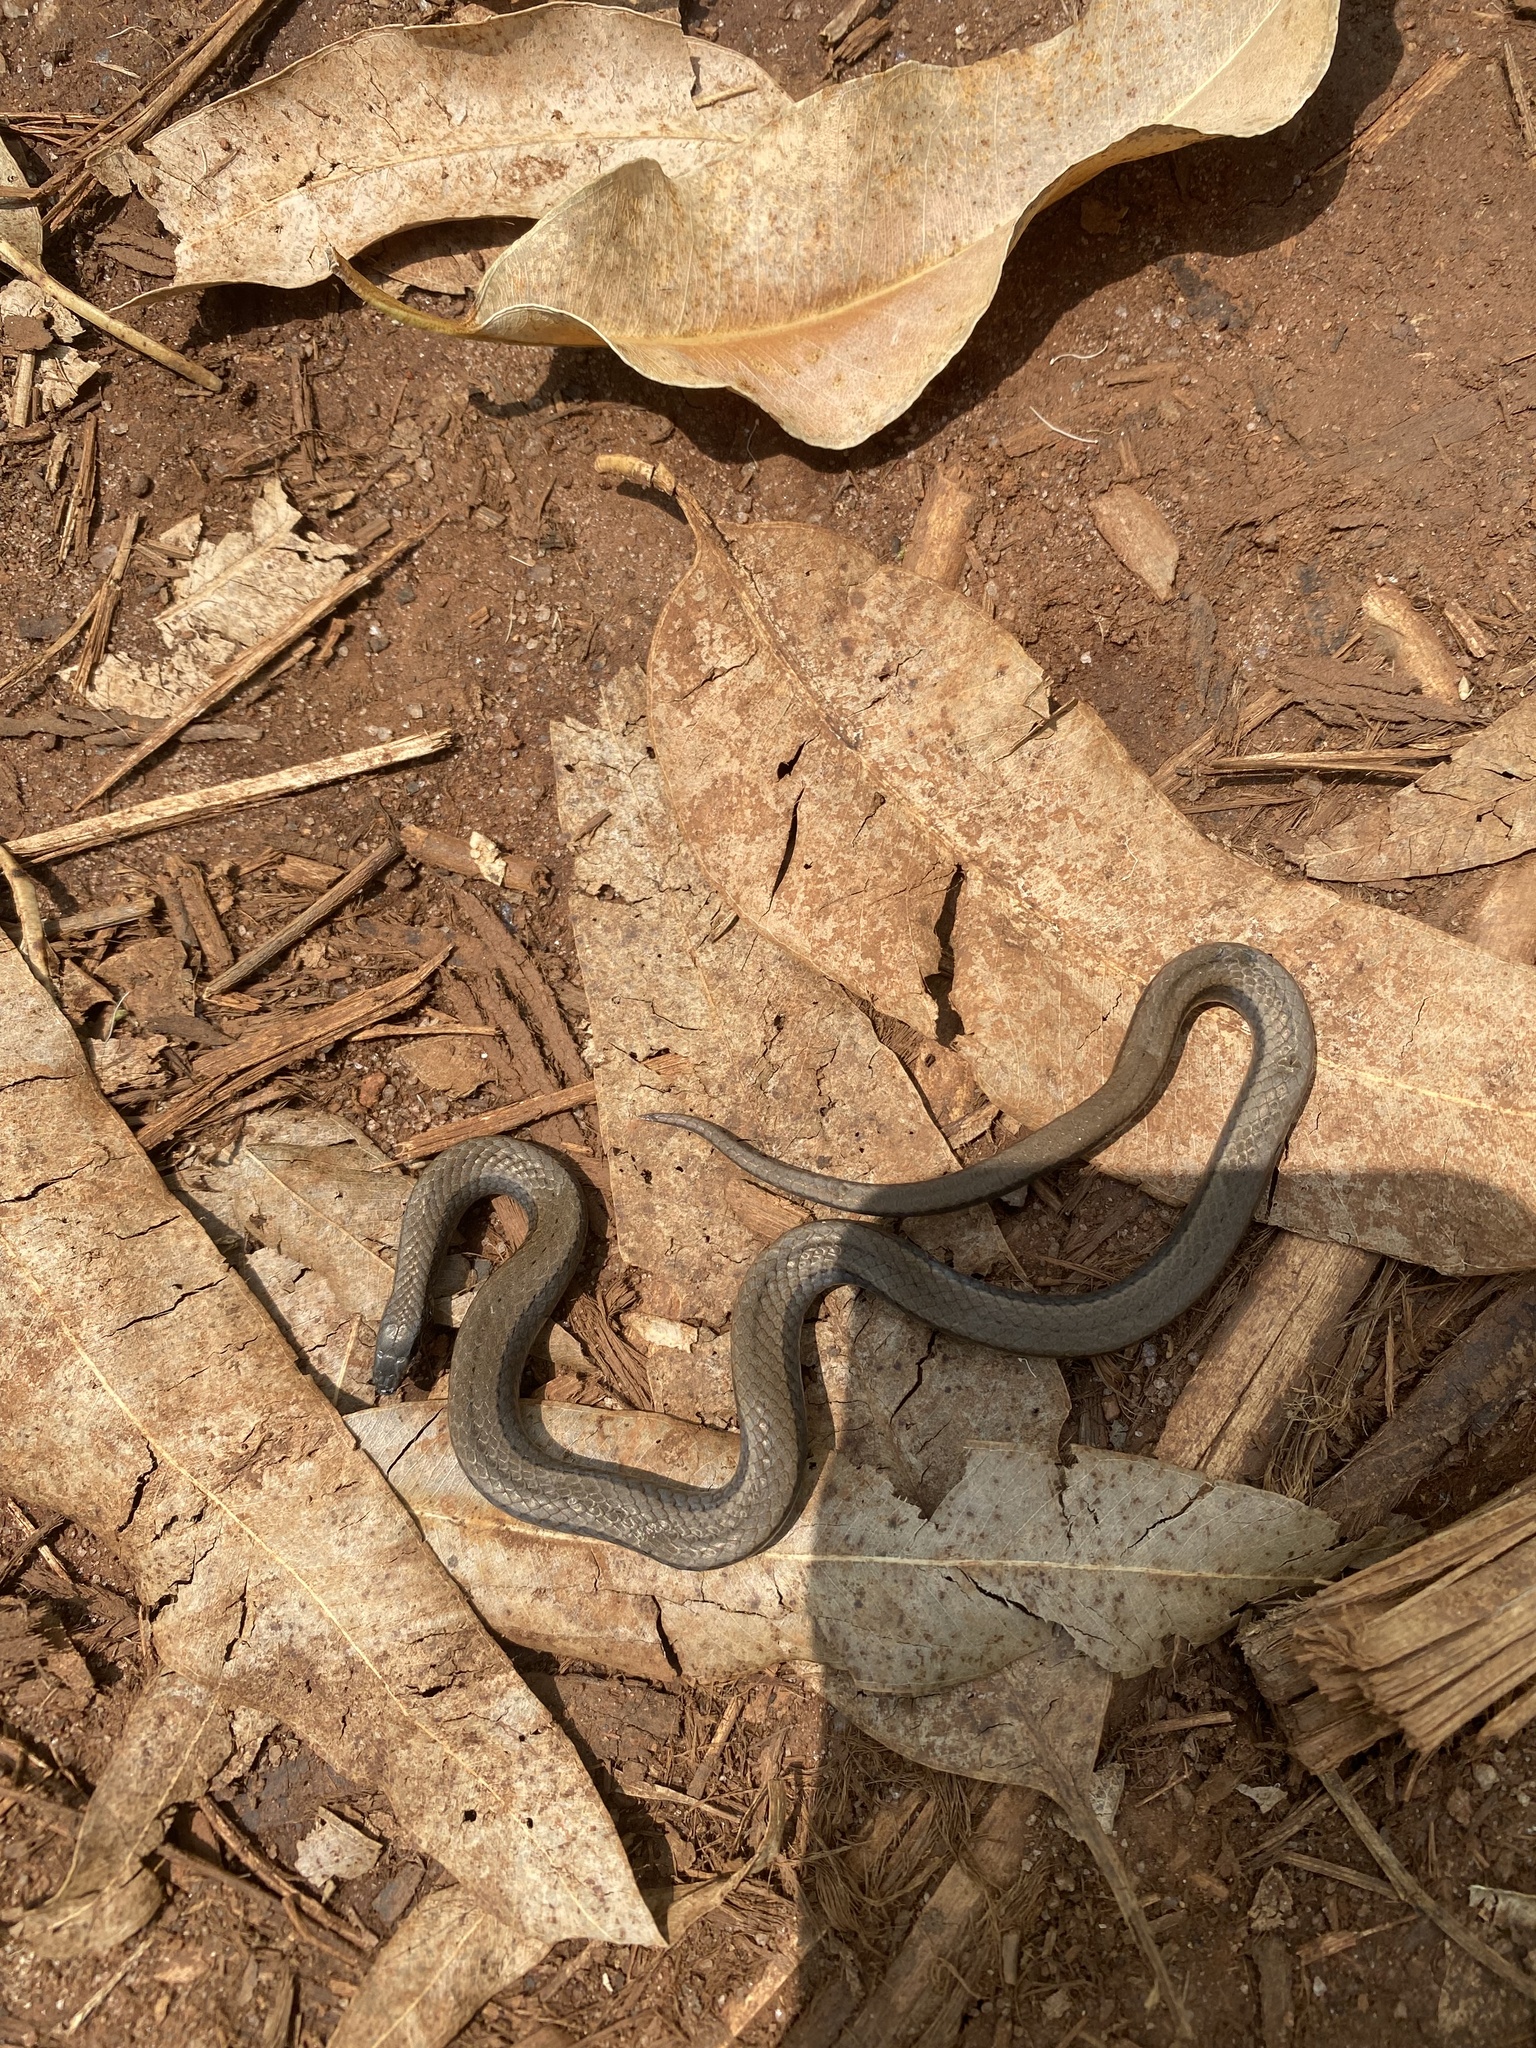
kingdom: Animalia
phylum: Chordata
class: Squamata
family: Pseudoxyrhophiidae
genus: Duberria
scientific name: Duberria lutrix
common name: Common slug eater
